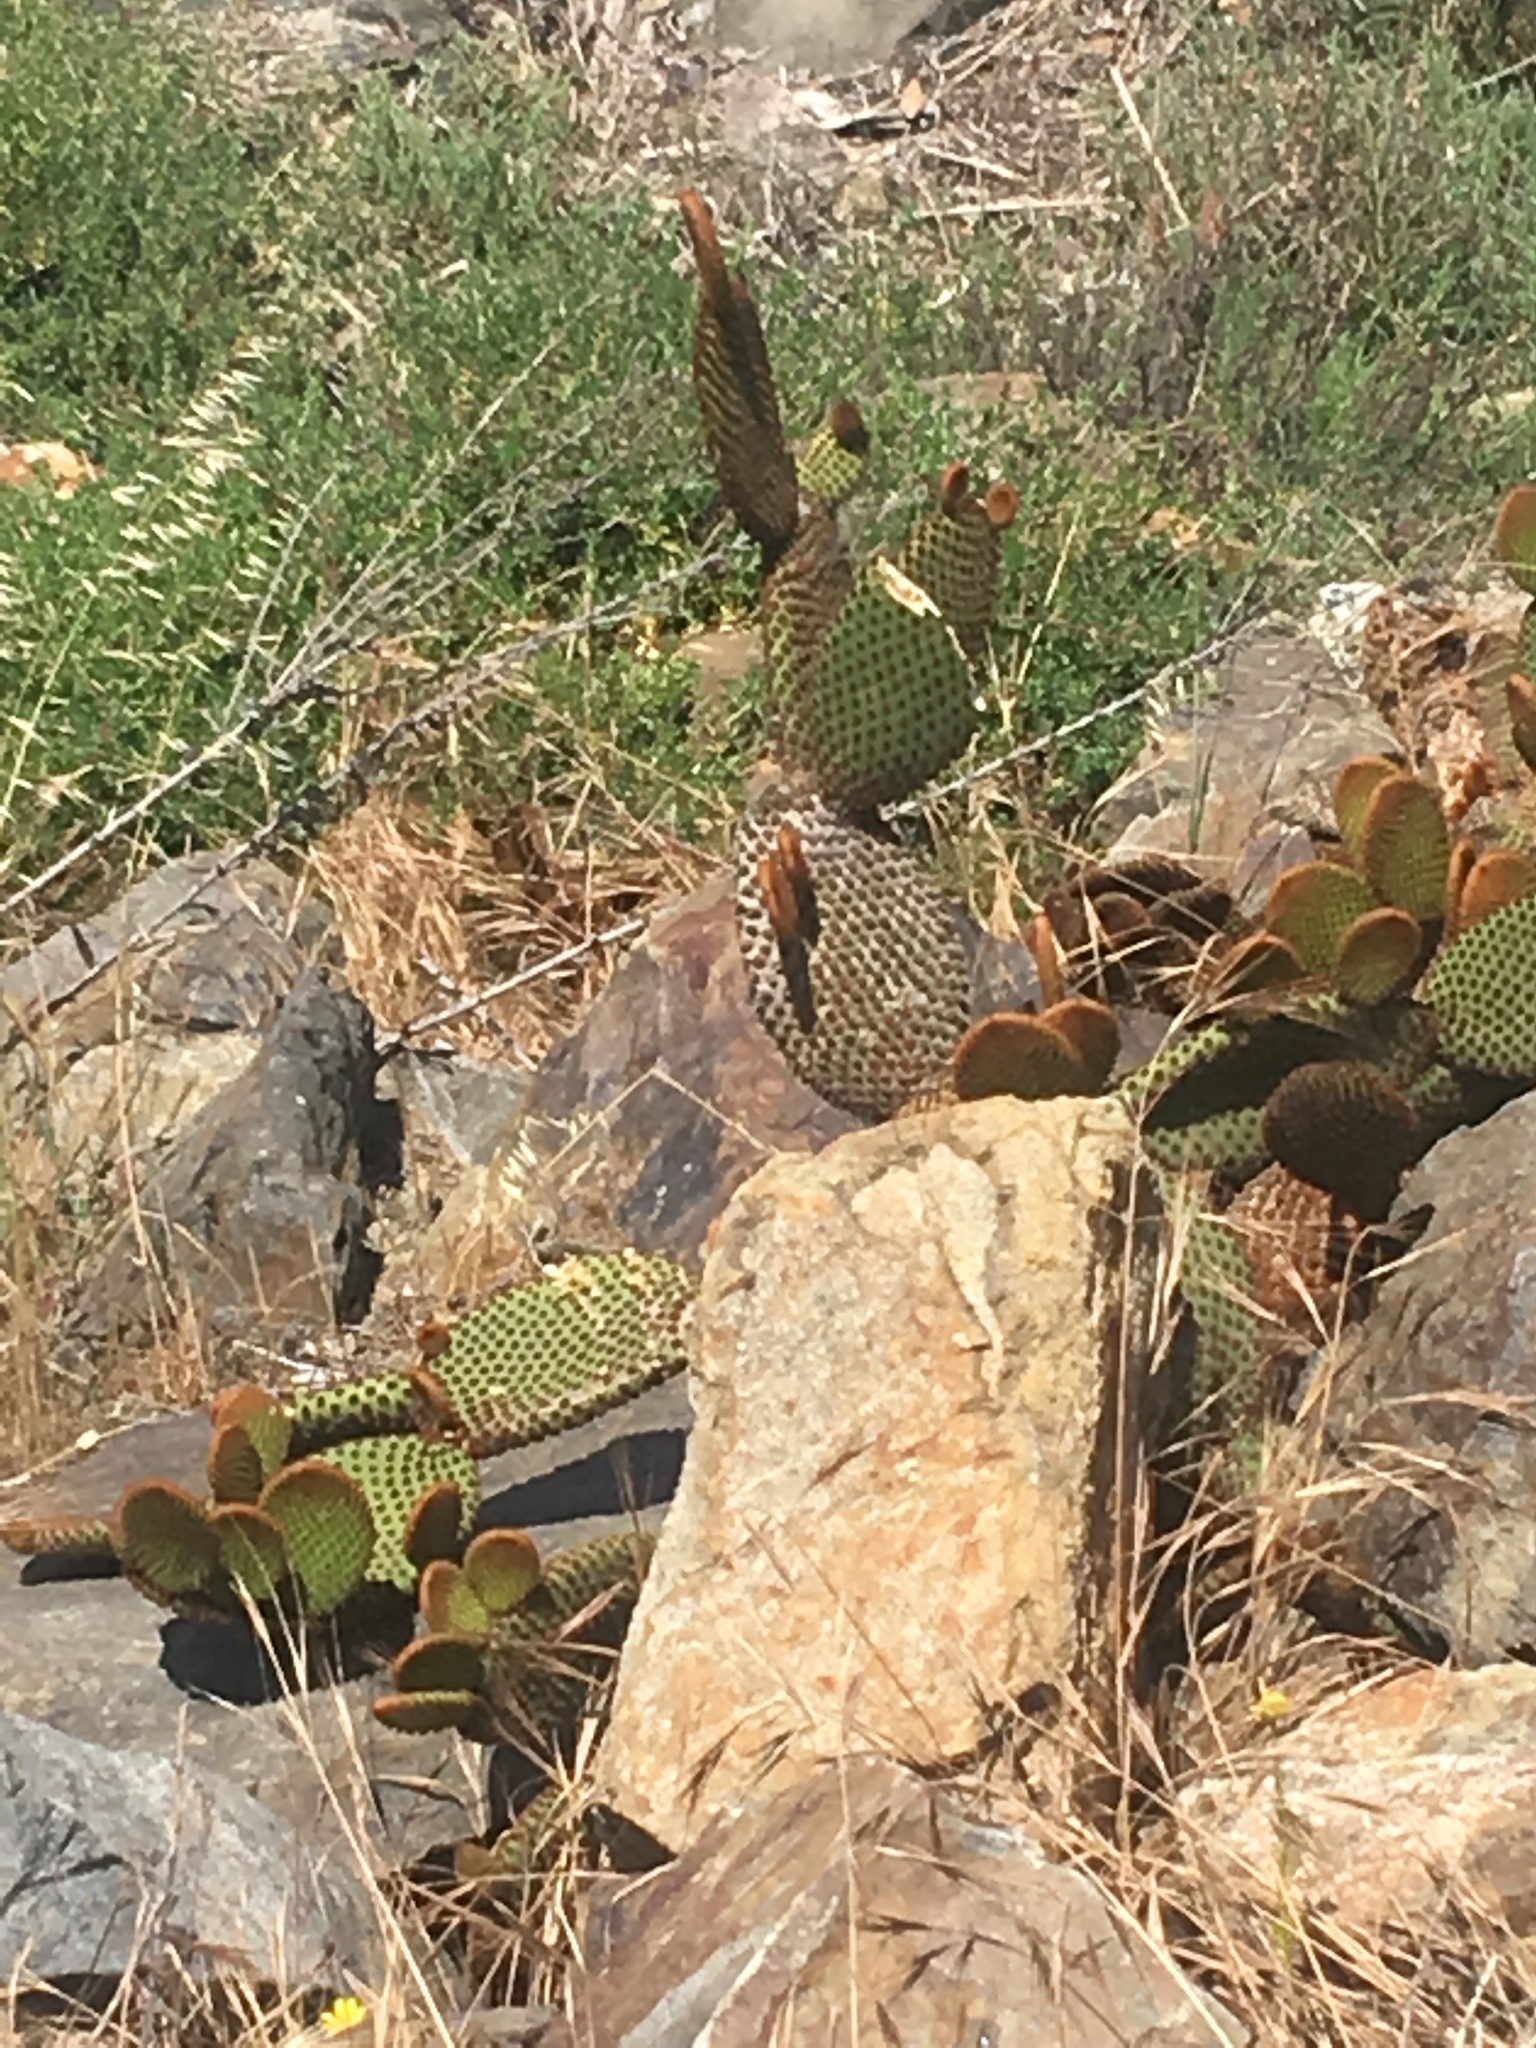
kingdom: Plantae
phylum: Tracheophyta
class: Magnoliopsida
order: Caryophyllales
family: Cactaceae
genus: Opuntia
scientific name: Opuntia microdasys
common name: Angel's-wings
